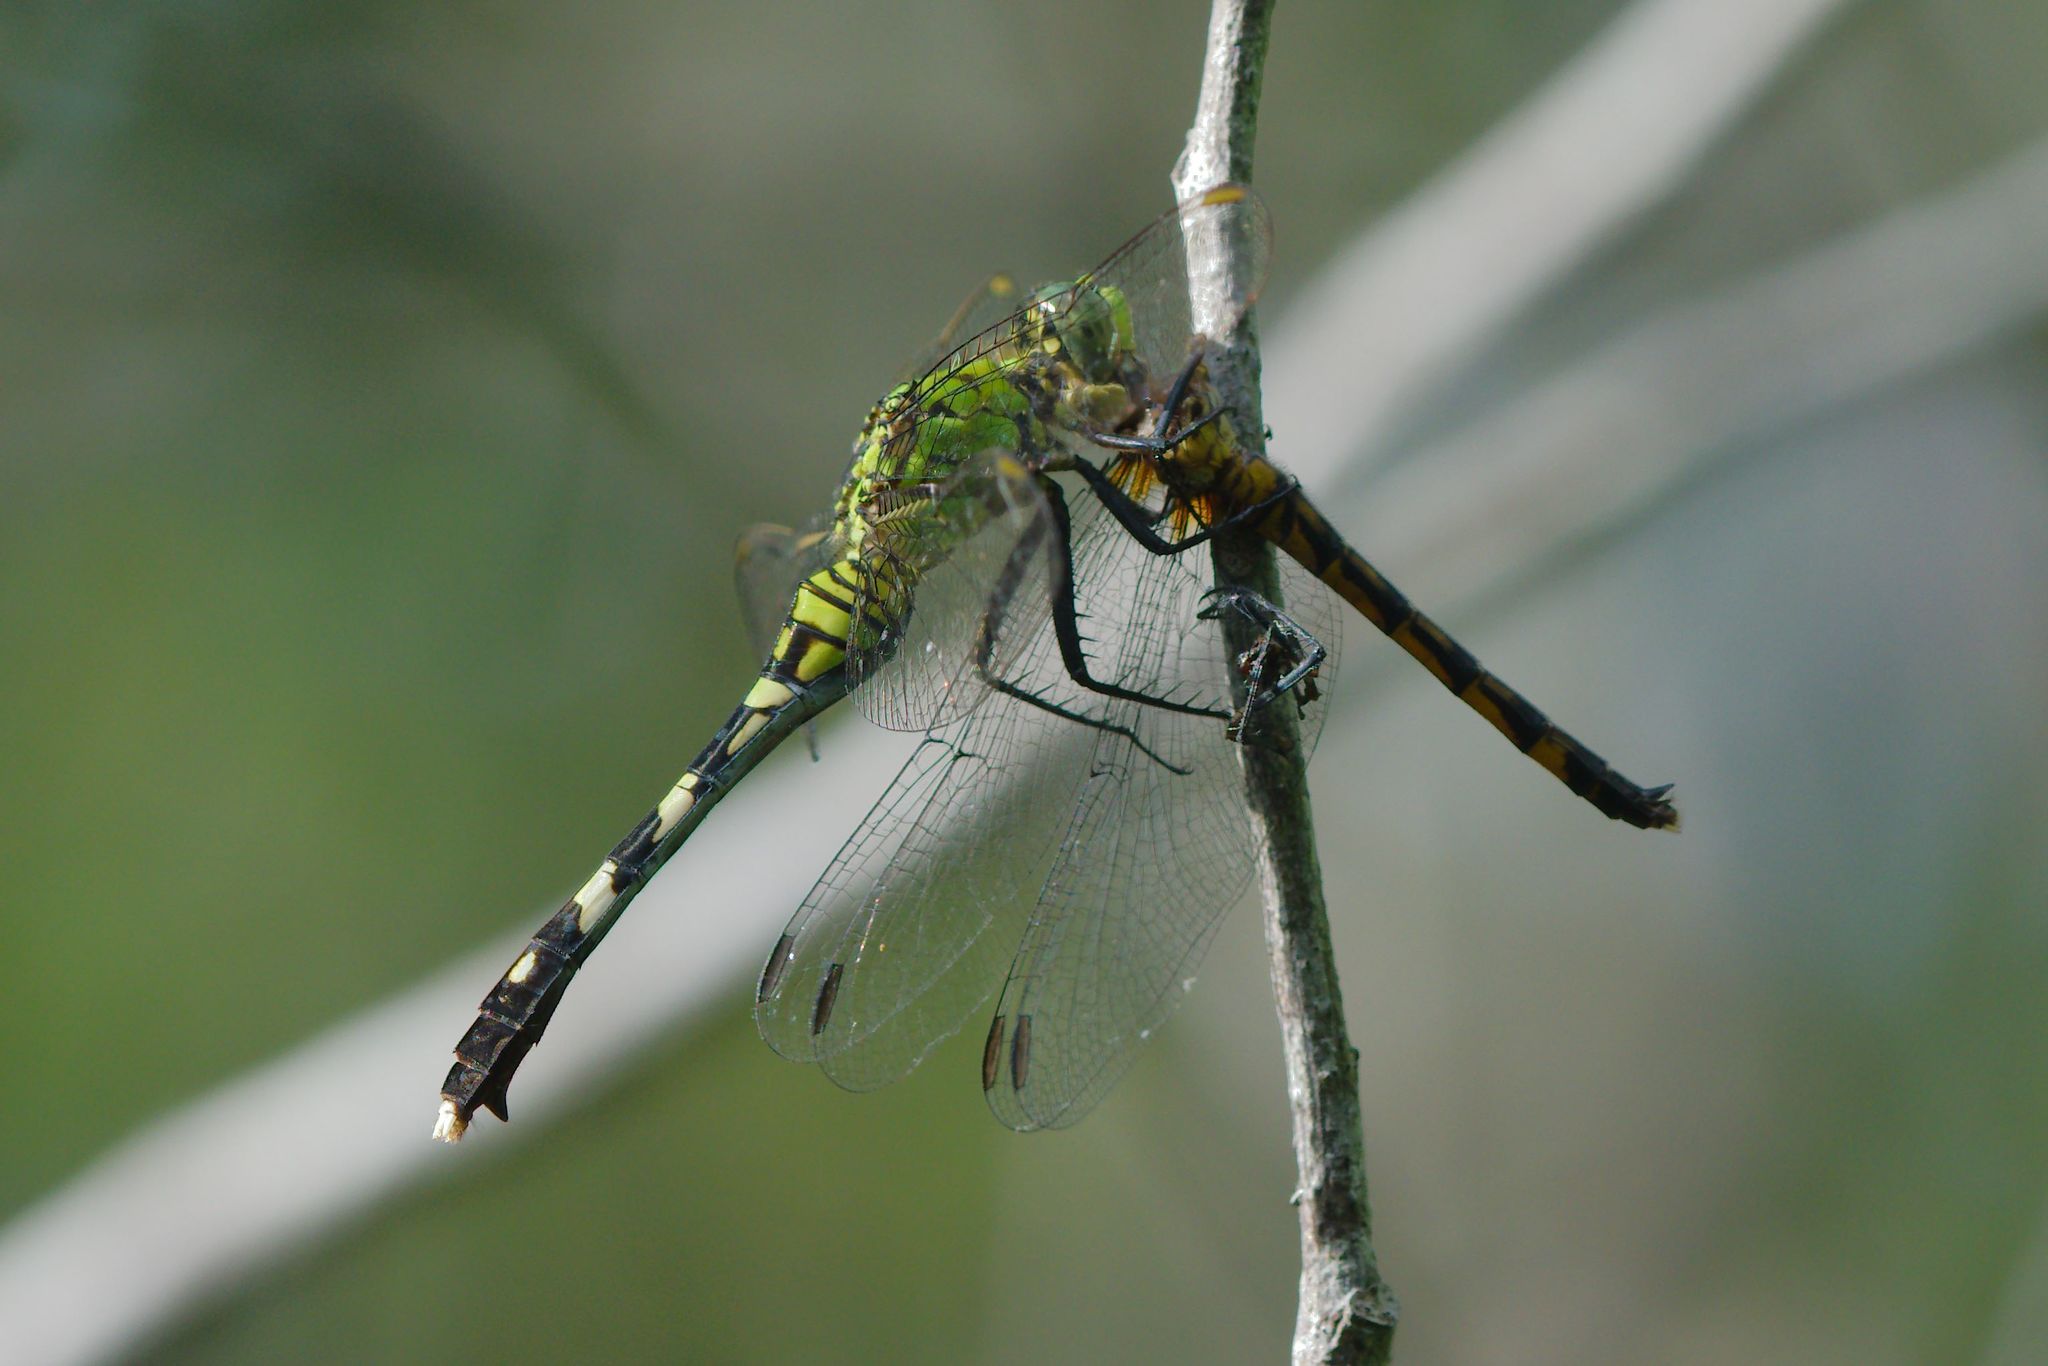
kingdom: Animalia
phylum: Arthropoda
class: Insecta
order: Odonata
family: Libellulidae
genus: Erythemis
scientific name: Erythemis simplicicollis
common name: Eastern pondhawk
